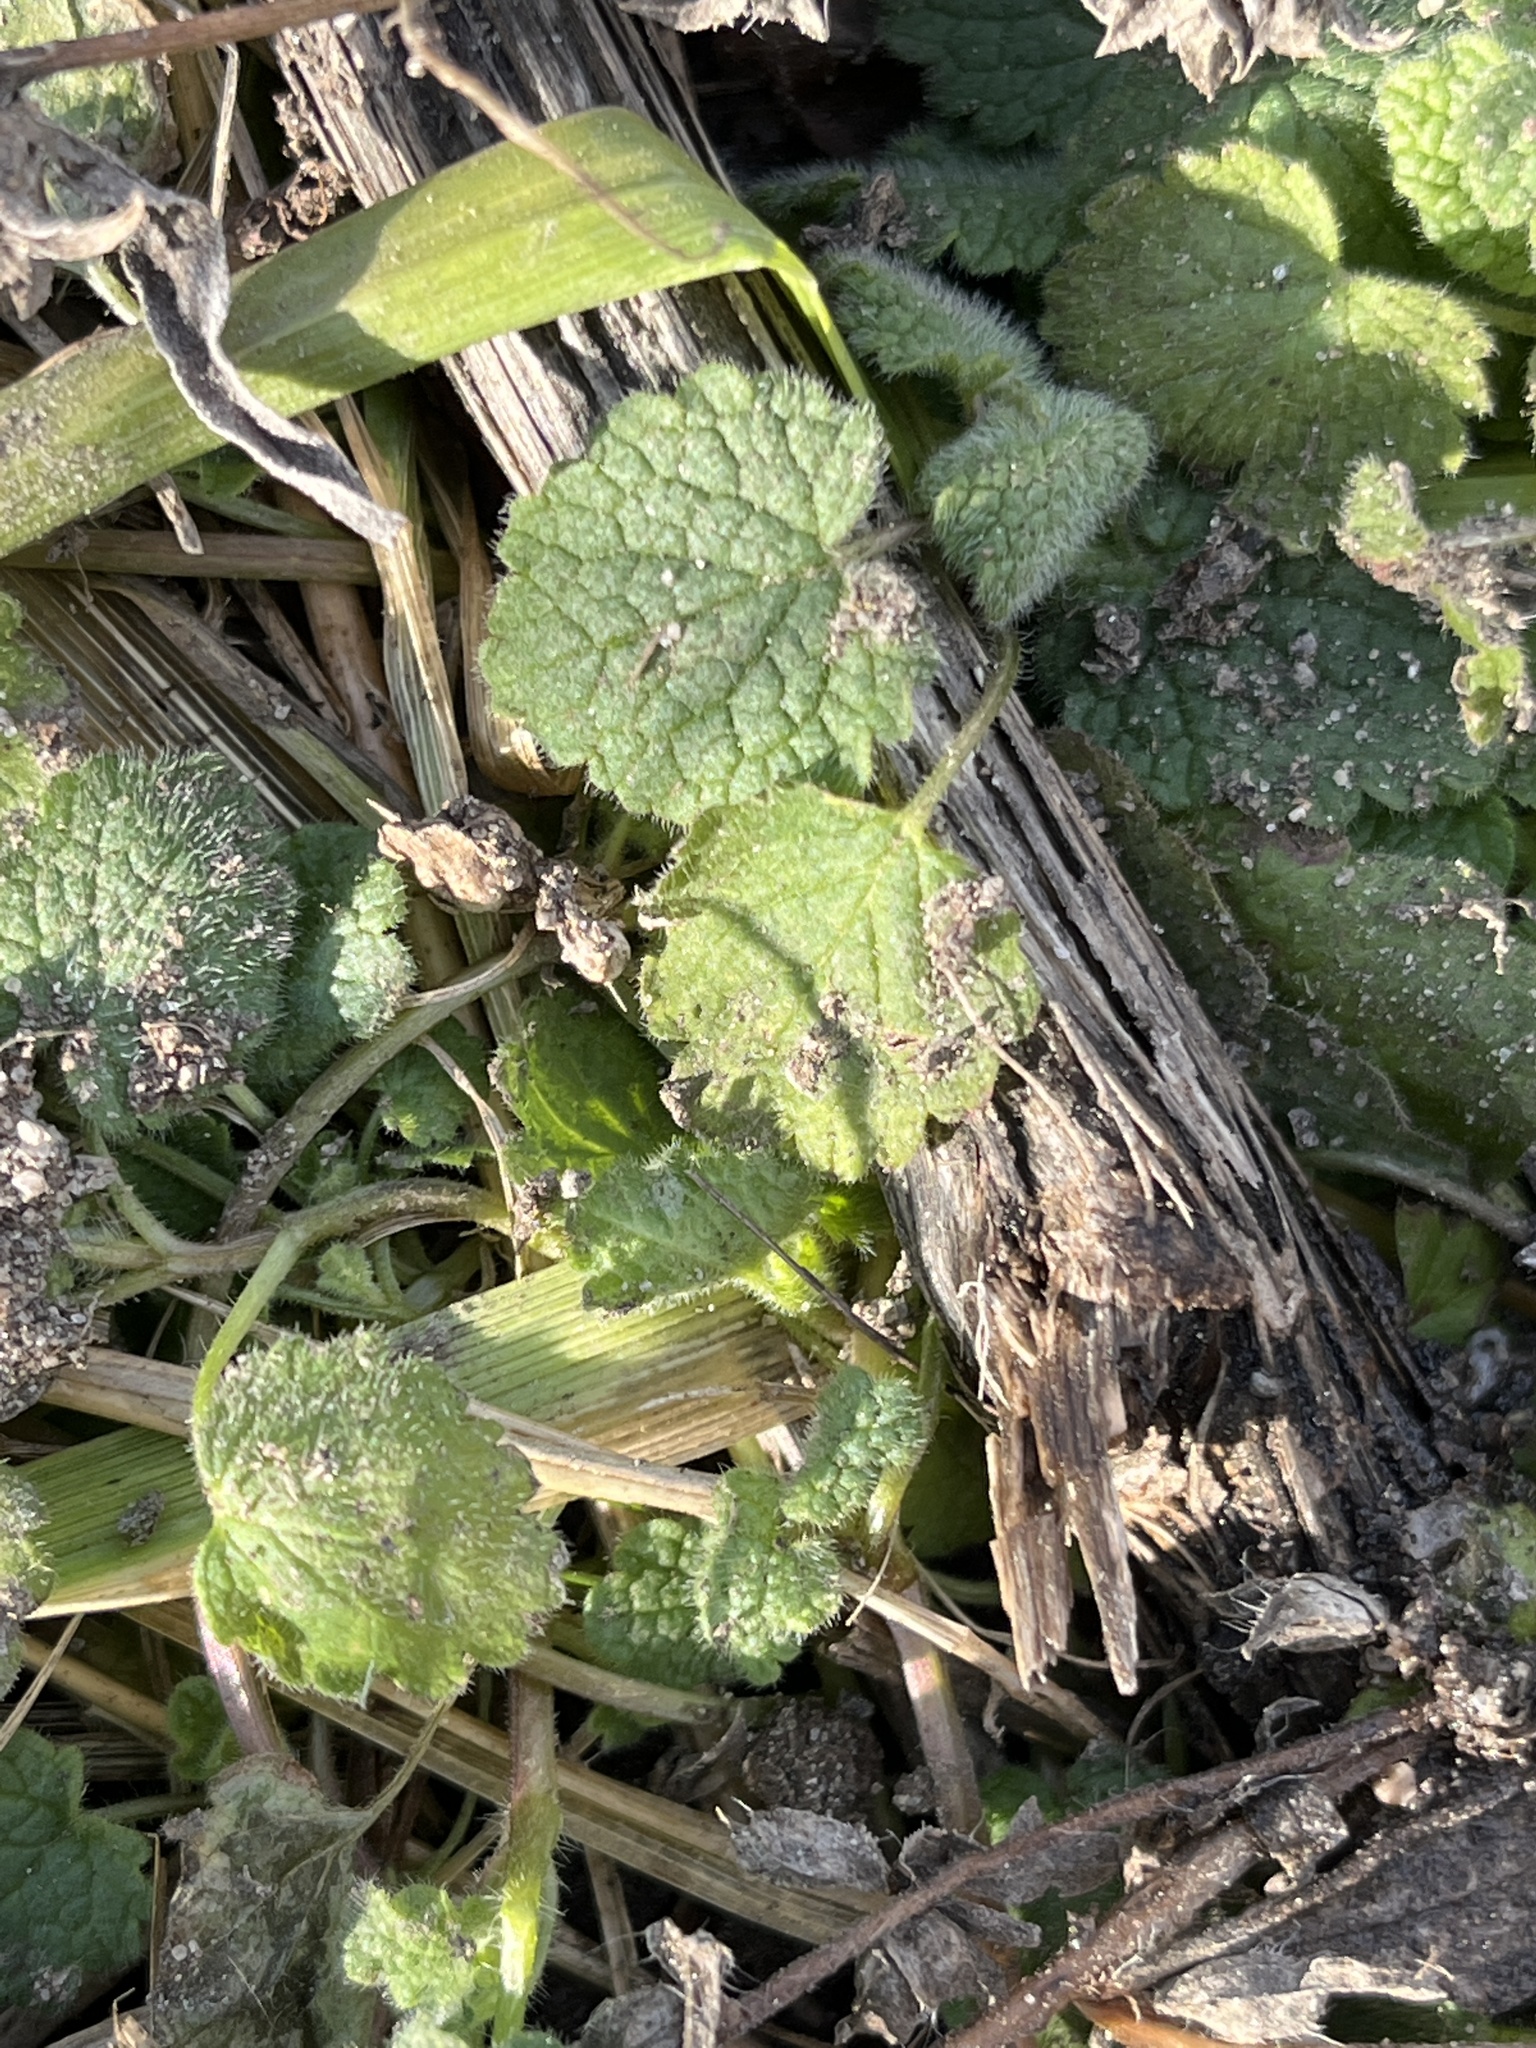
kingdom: Plantae
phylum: Tracheophyta
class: Magnoliopsida
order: Lamiales
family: Lamiaceae
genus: Lamium
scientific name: Lamium purpureum
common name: Red dead-nettle
